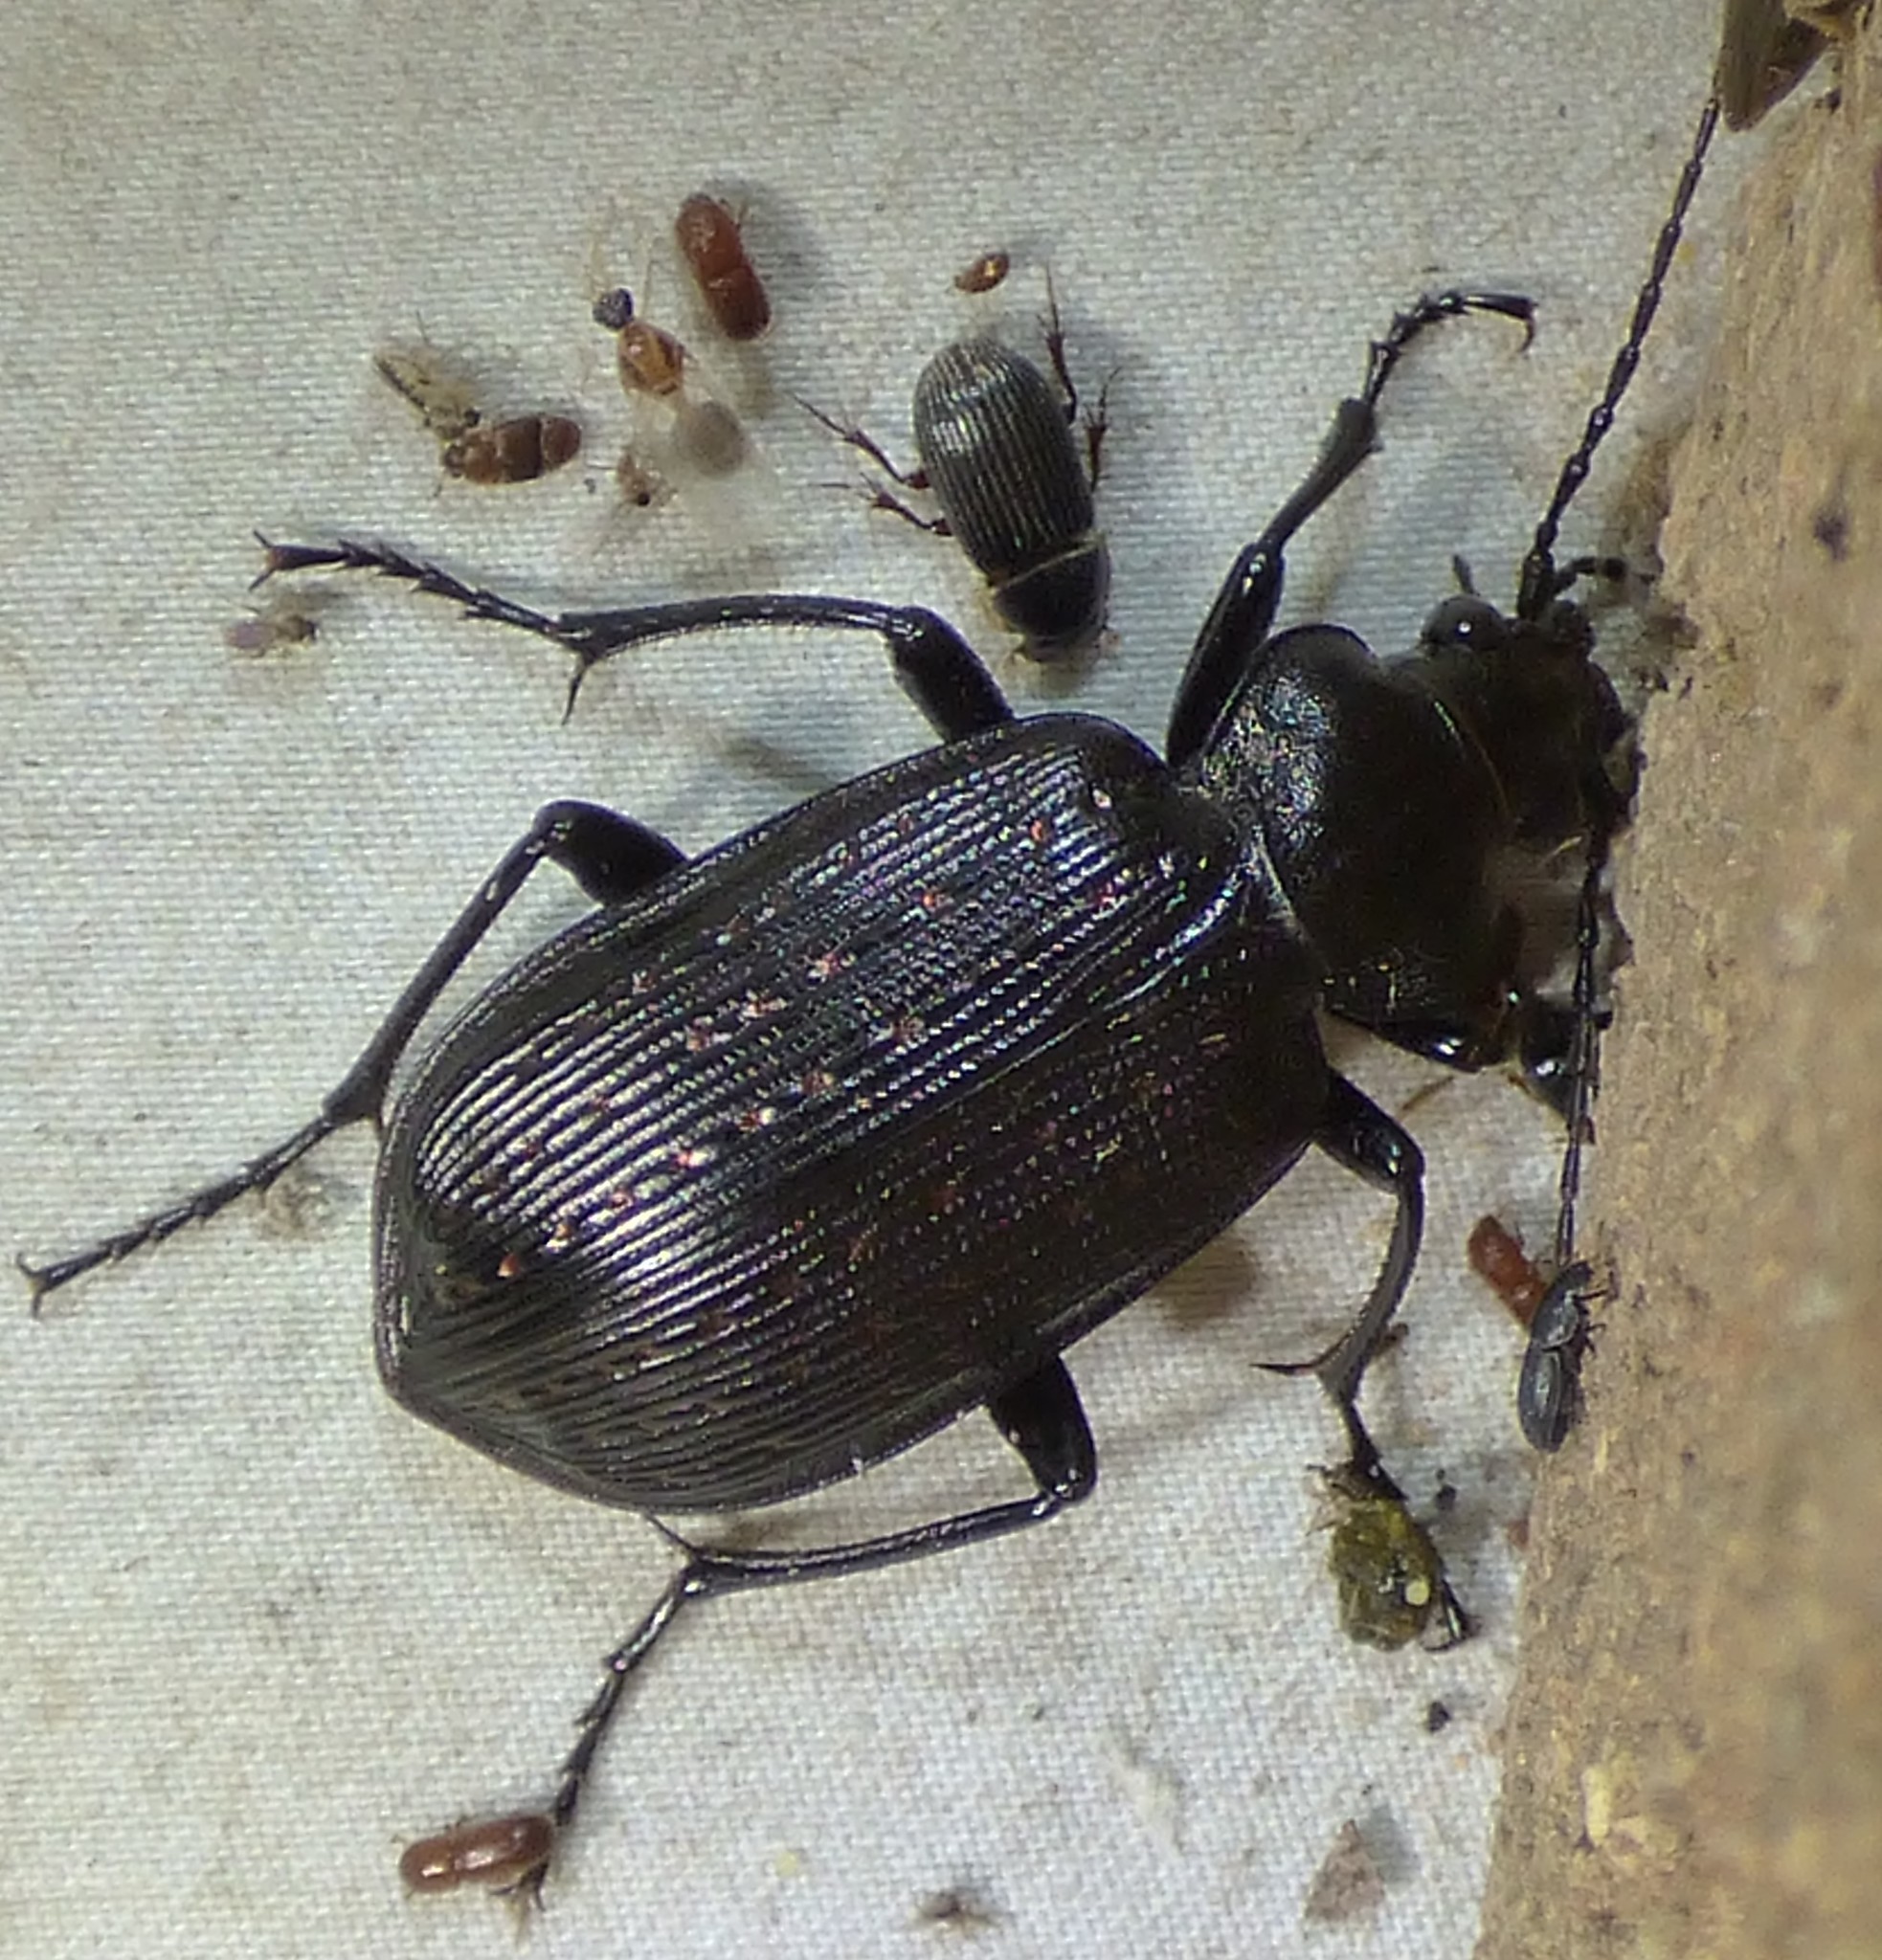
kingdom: Animalia
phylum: Arthropoda
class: Insecta
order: Coleoptera
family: Carabidae
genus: Calosoma
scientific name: Calosoma sayi
